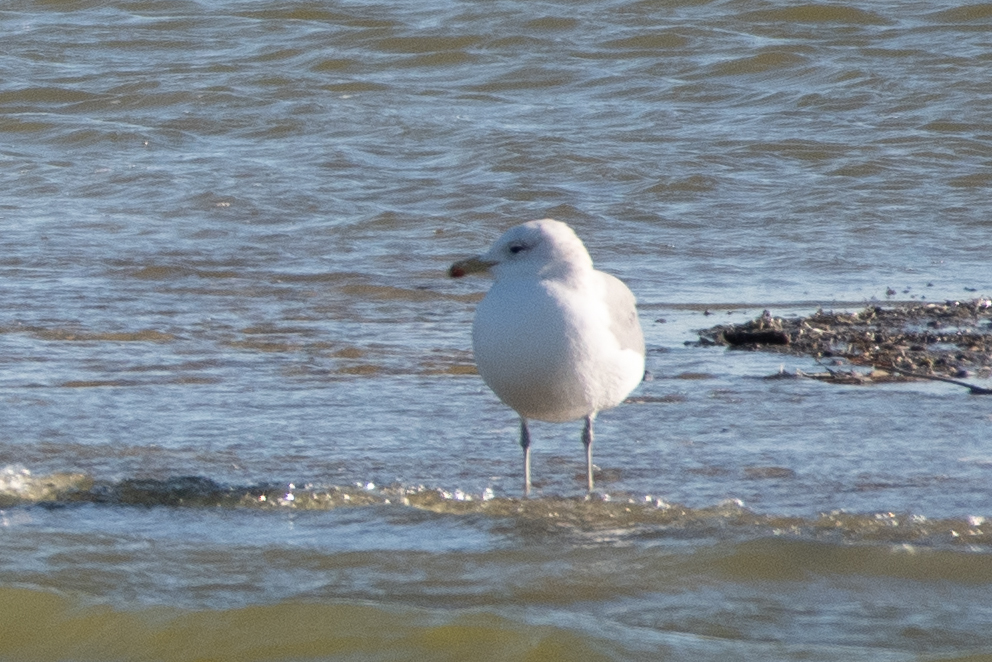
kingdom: Animalia
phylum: Chordata
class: Aves
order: Charadriiformes
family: Laridae
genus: Larus
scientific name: Larus californicus
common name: California gull
